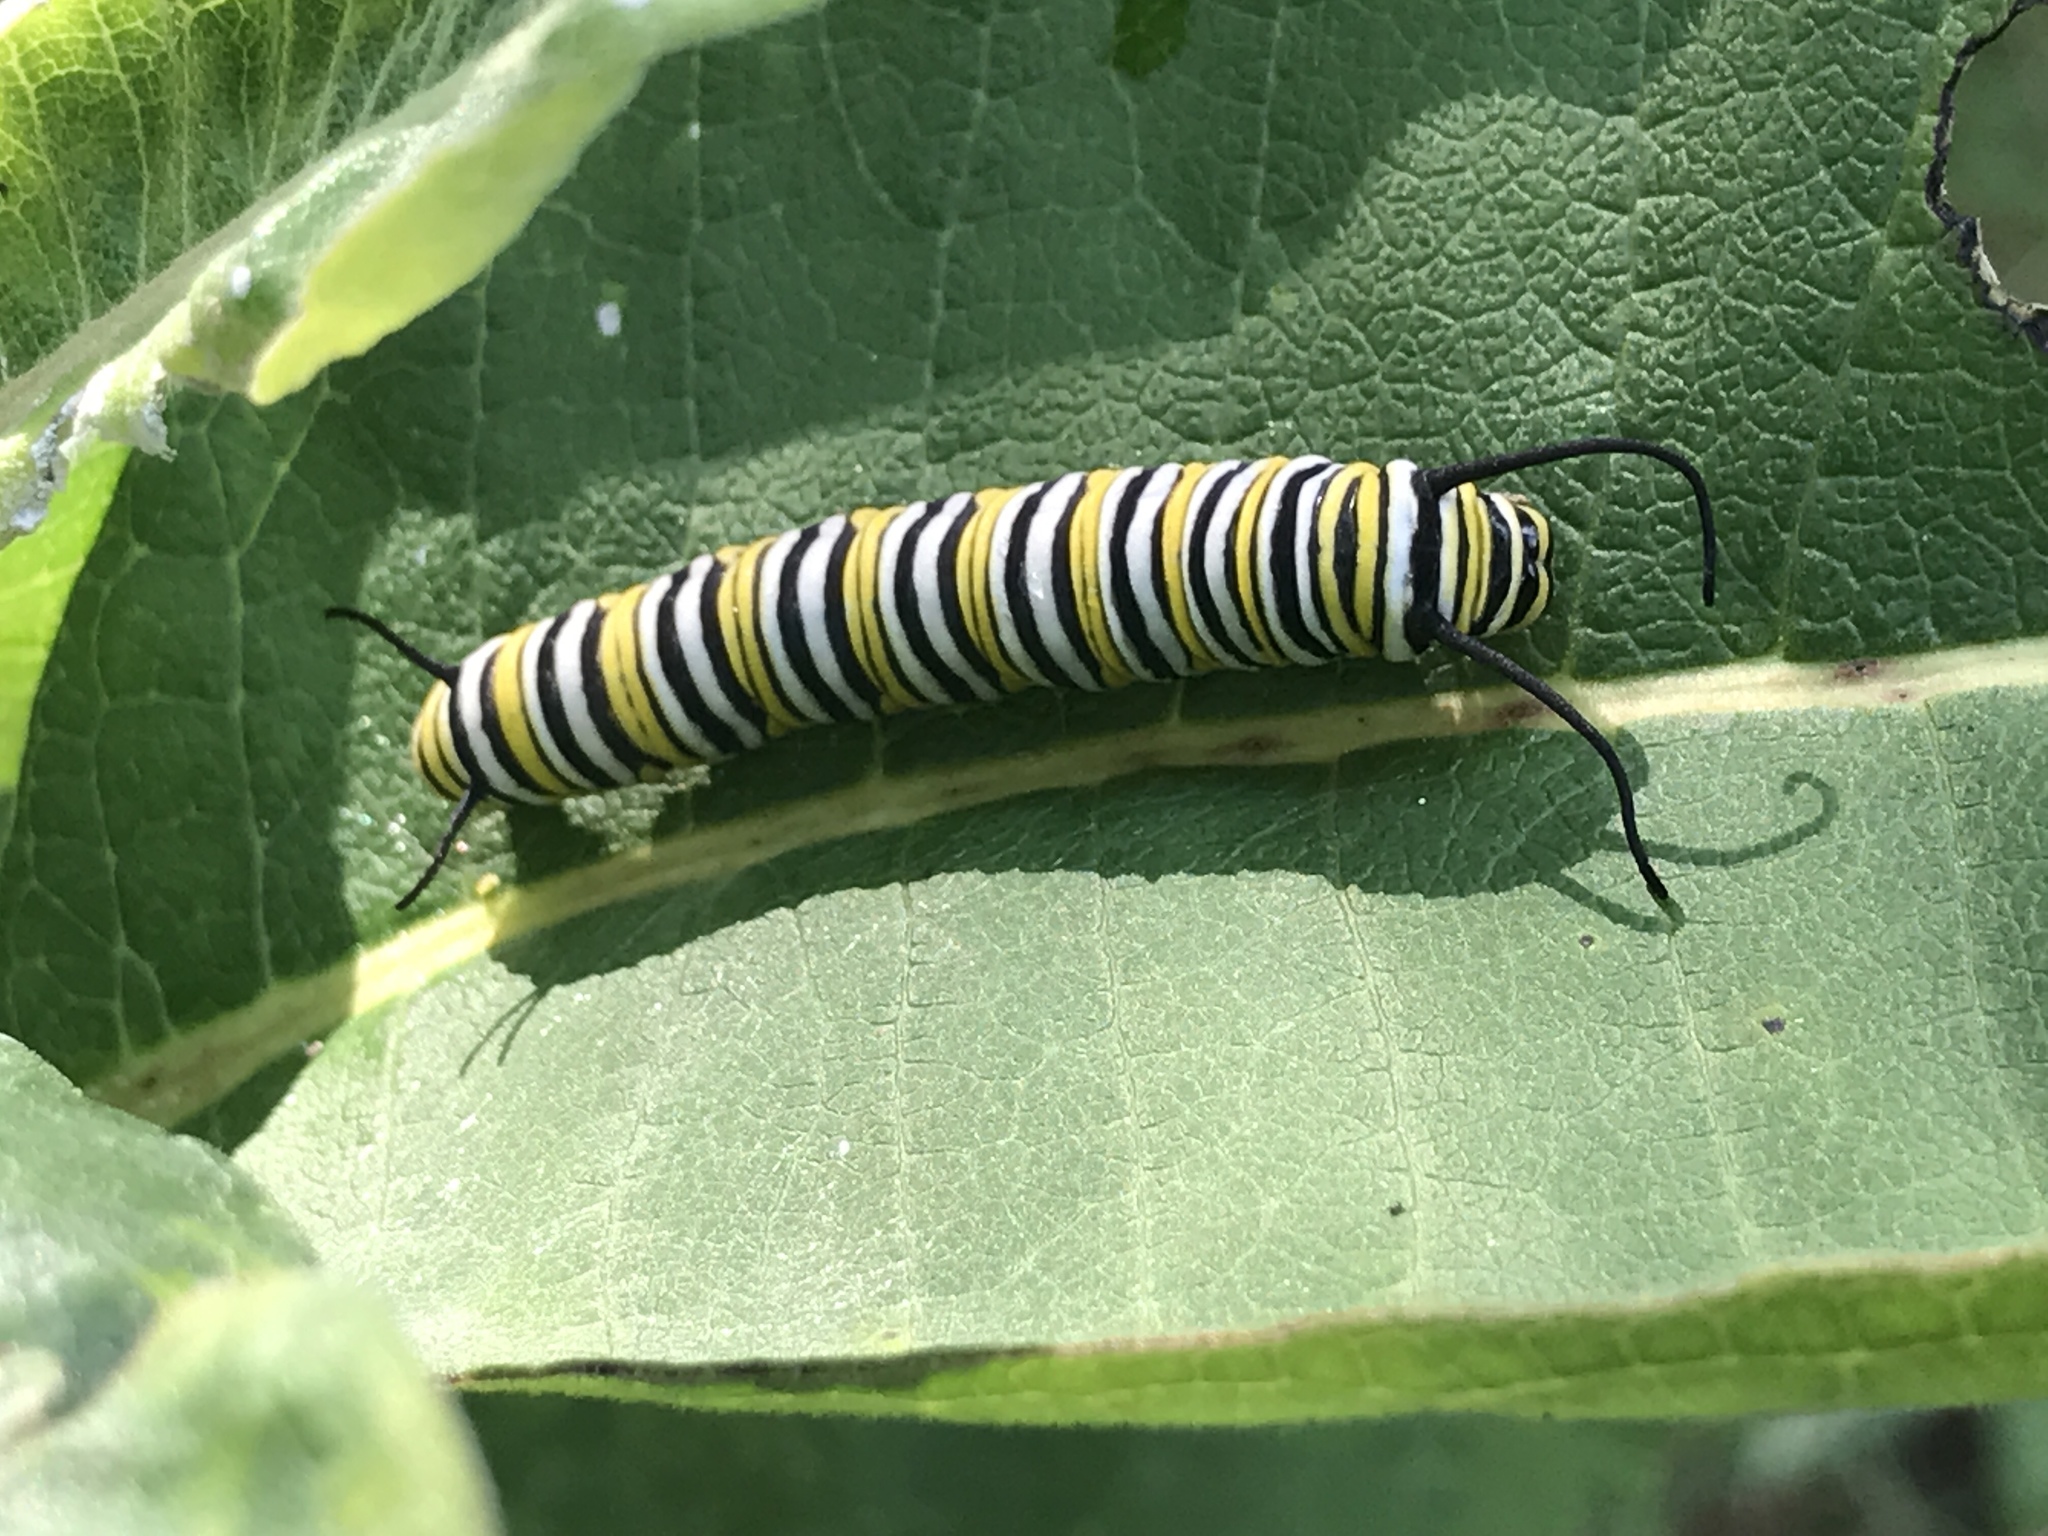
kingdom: Animalia
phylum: Arthropoda
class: Insecta
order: Lepidoptera
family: Nymphalidae
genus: Danaus
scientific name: Danaus plexippus
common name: Monarch
